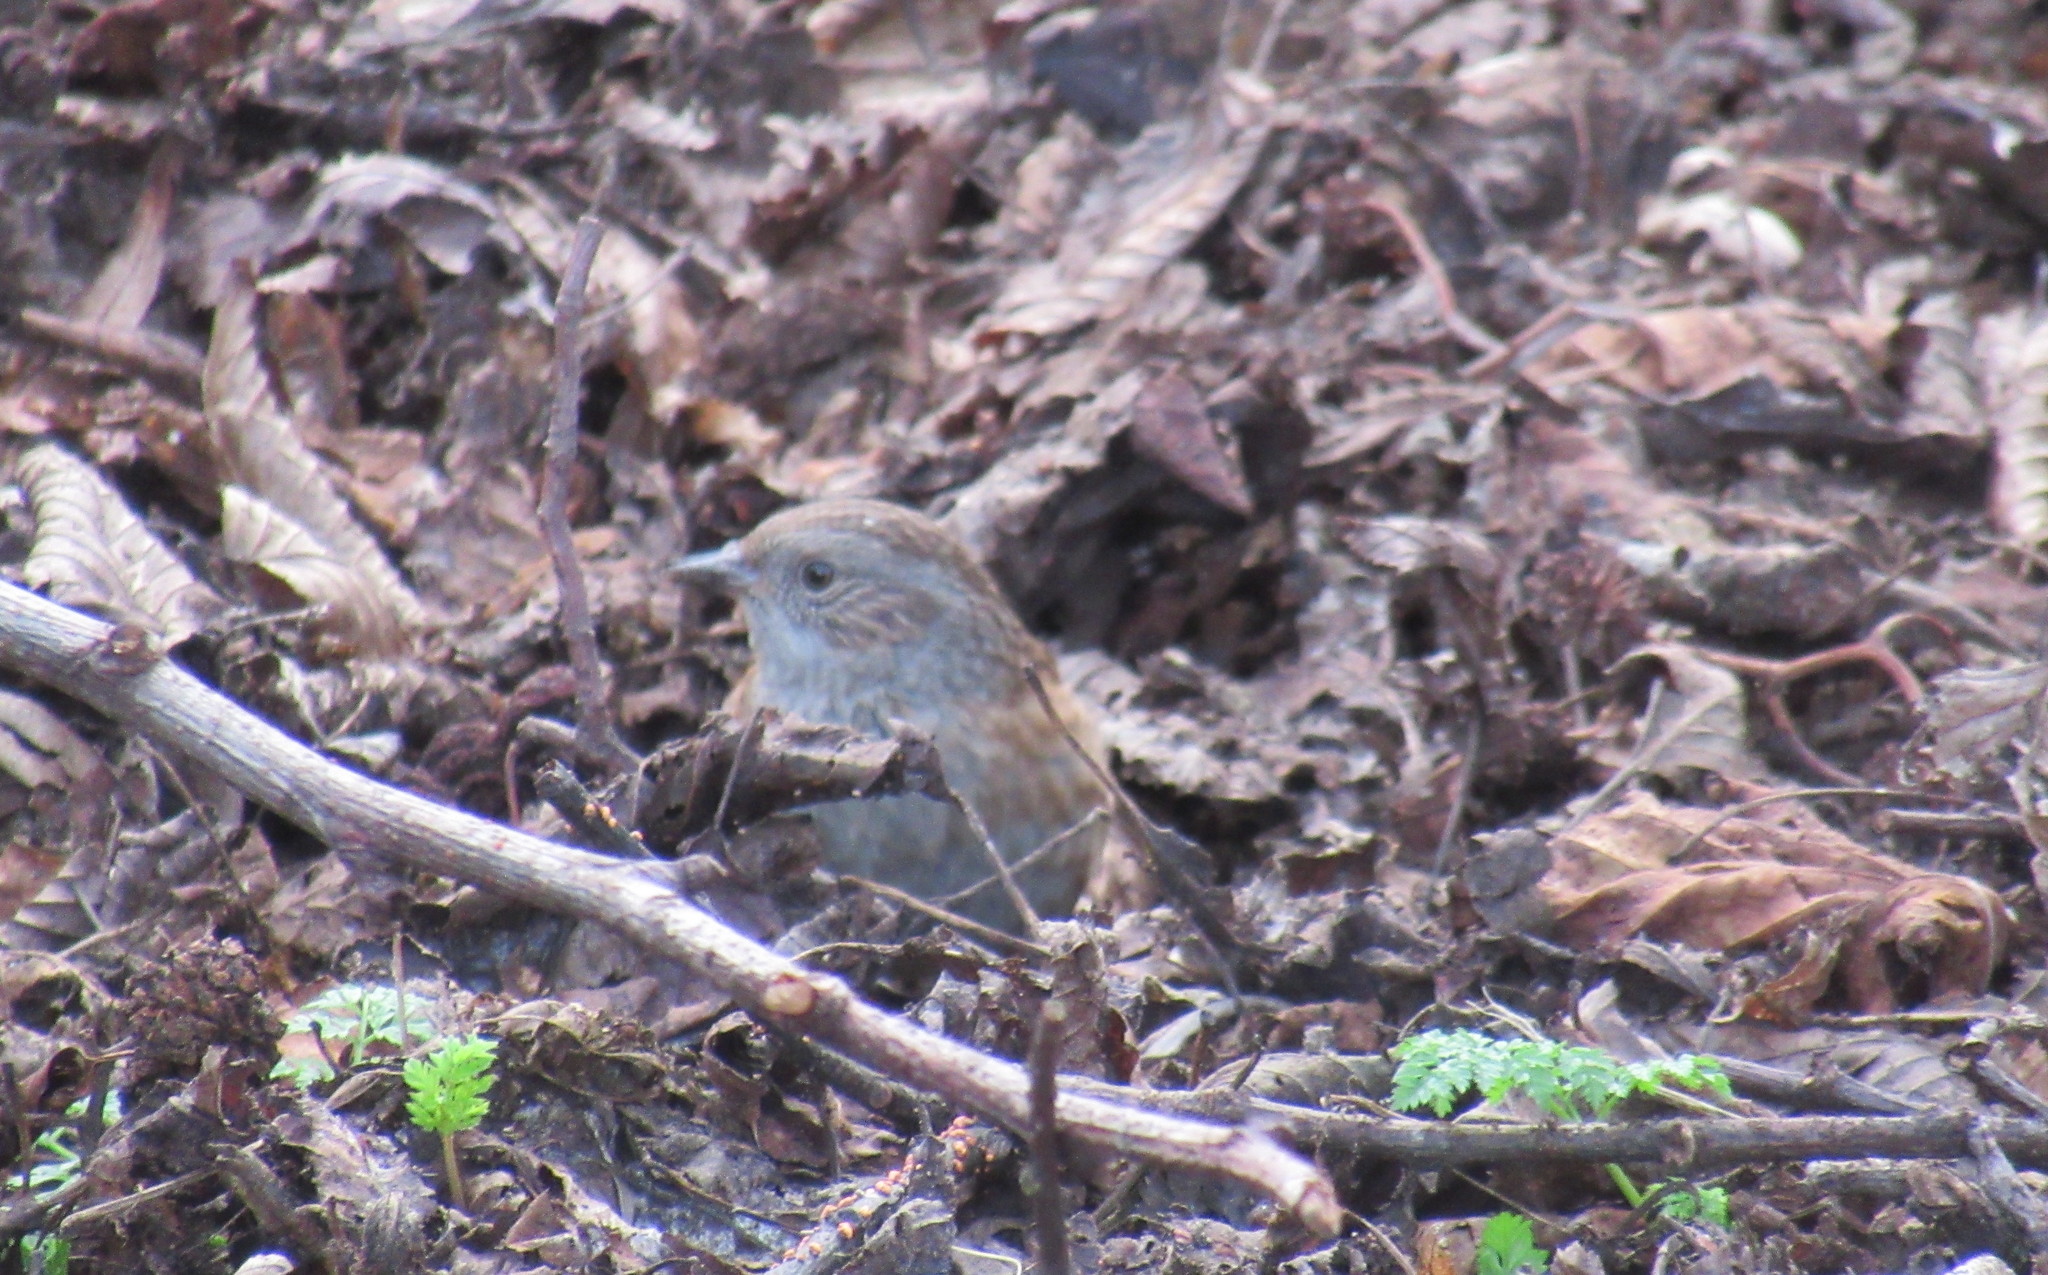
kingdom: Animalia
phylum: Chordata
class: Aves
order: Passeriformes
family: Prunellidae
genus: Prunella
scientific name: Prunella modularis
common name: Dunnock
